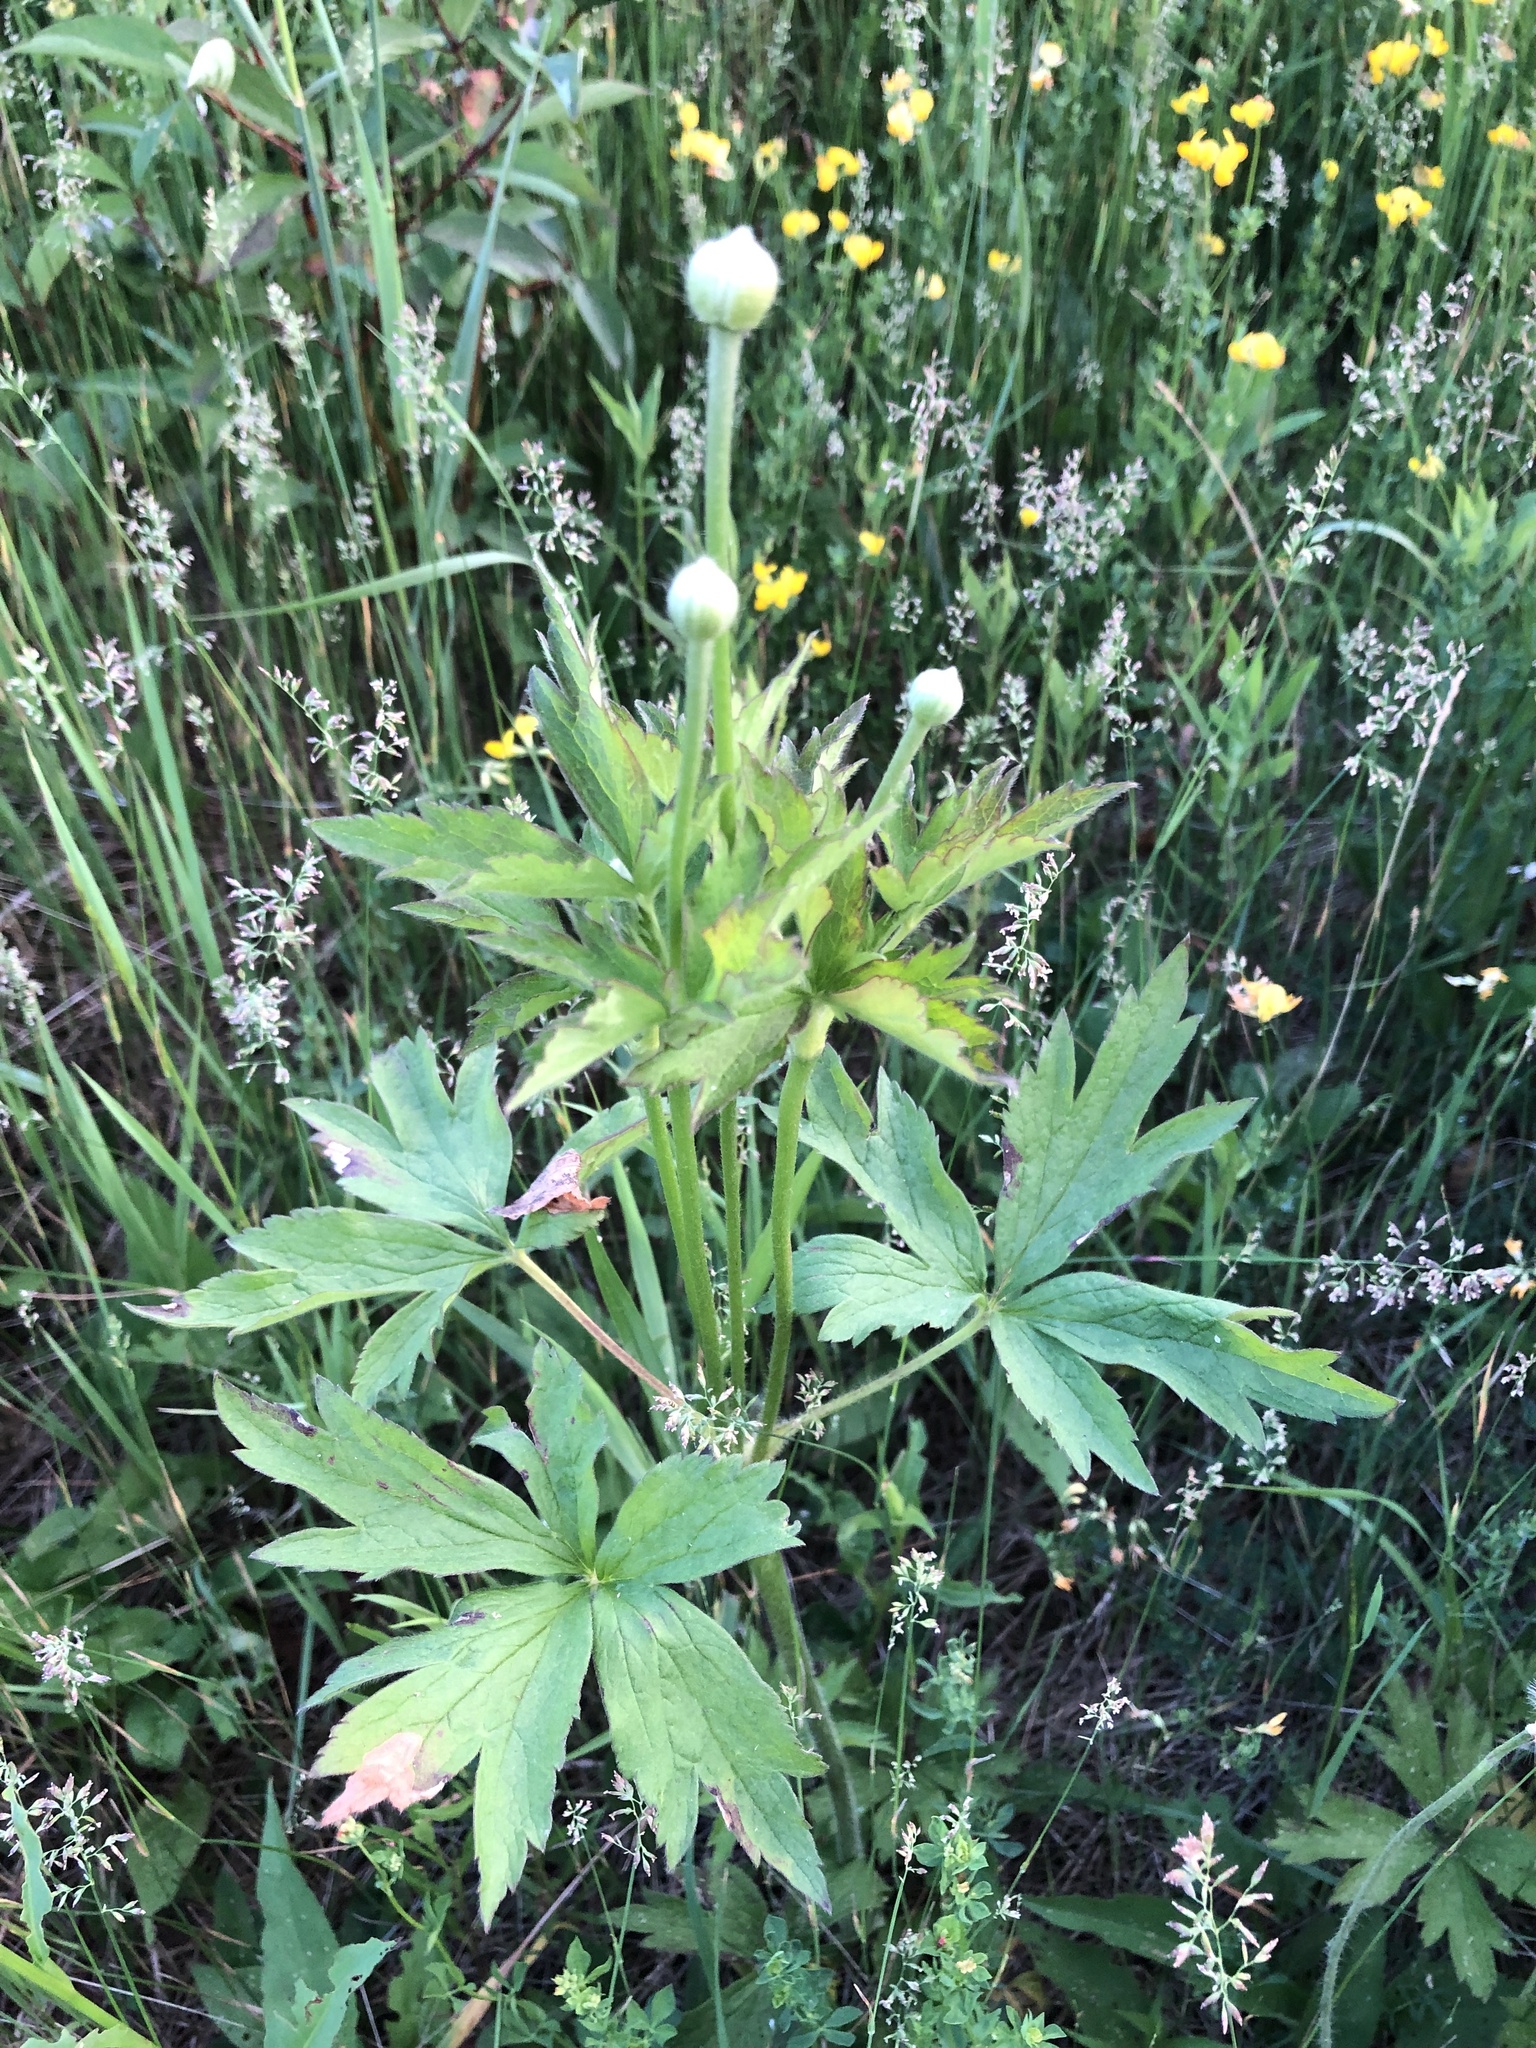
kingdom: Plantae
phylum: Tracheophyta
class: Magnoliopsida
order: Ranunculales
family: Ranunculaceae
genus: Anemone
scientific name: Anemone virginiana
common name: Tall anemone
